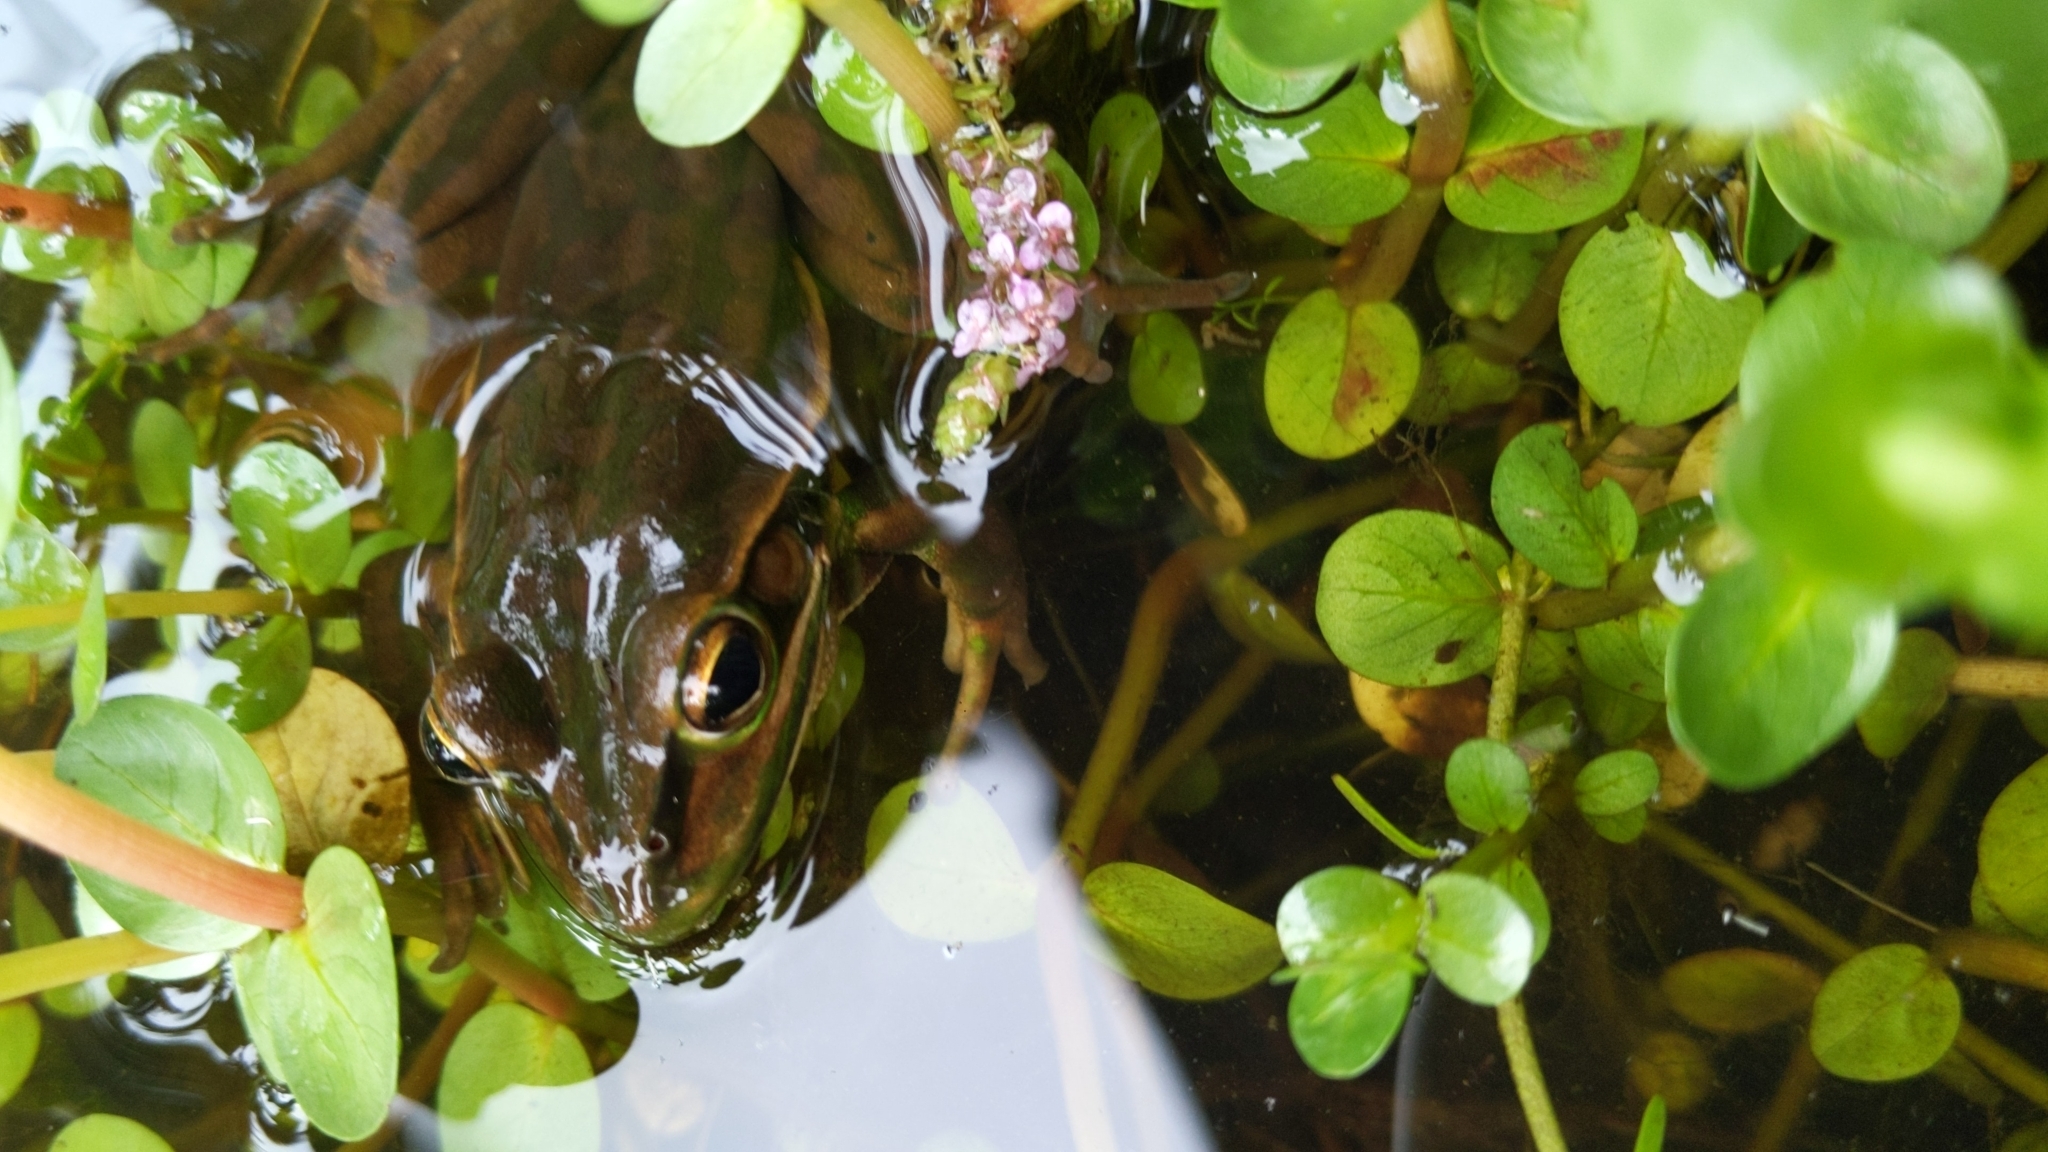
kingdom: Animalia
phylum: Chordata
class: Amphibia
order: Anura
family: Pelodryadidae
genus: Ranoidea
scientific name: Ranoidea aurea
